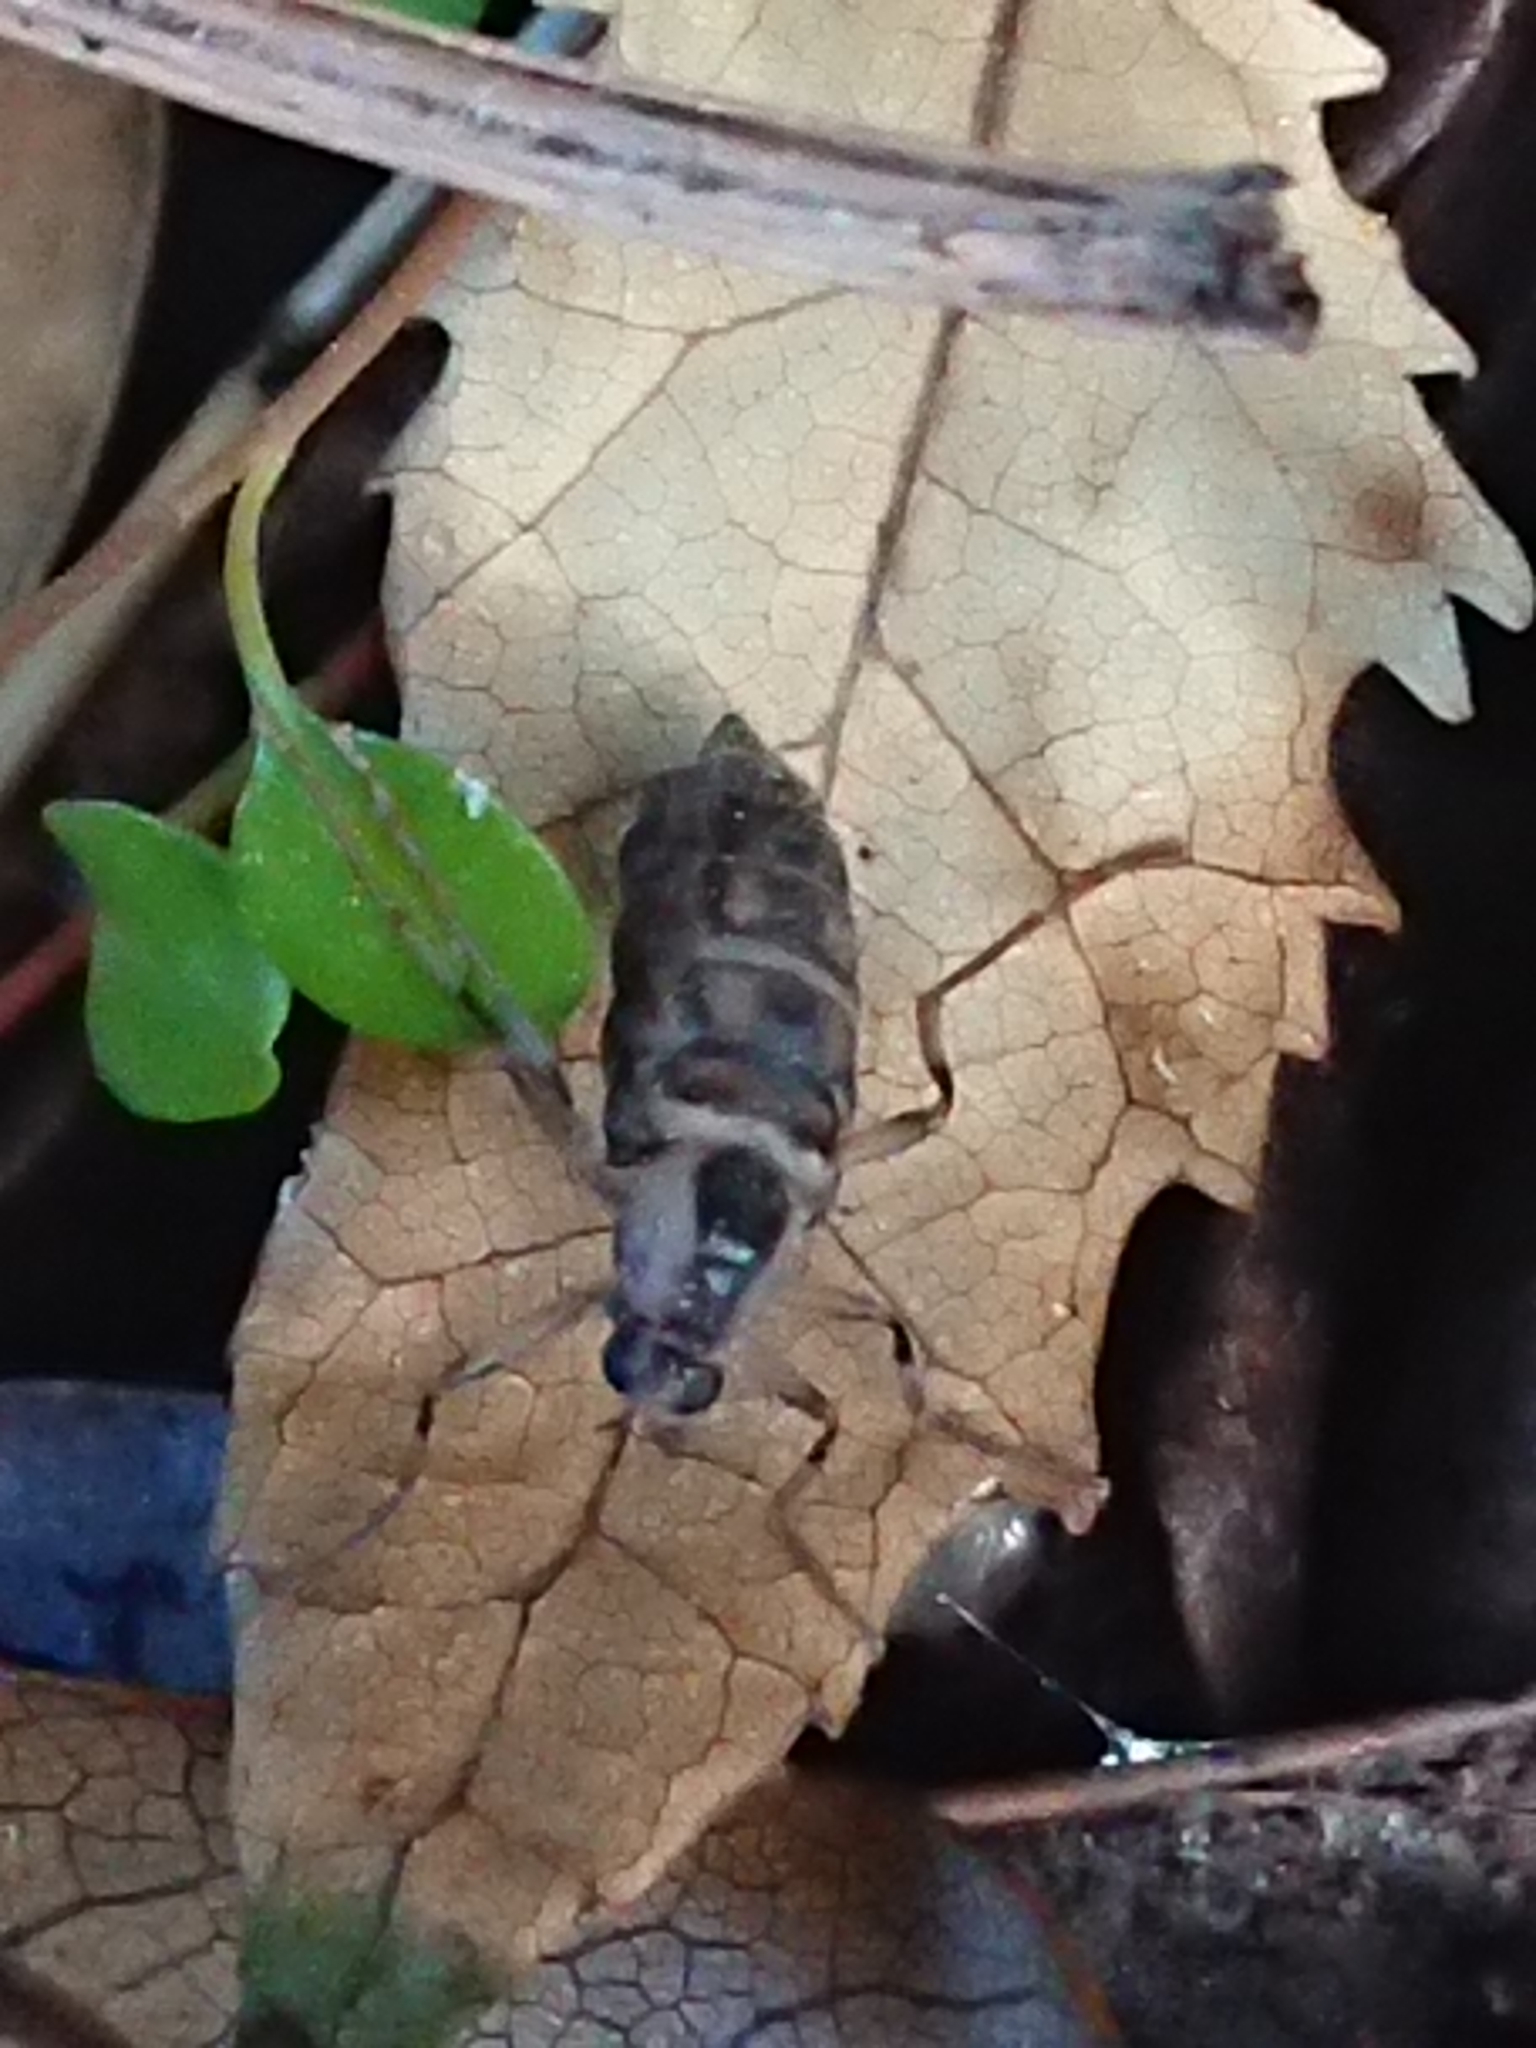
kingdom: Animalia
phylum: Arthropoda
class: Insecta
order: Diptera
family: Stratiomyidae
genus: Boreoides
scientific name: Boreoides tasmaniensis
